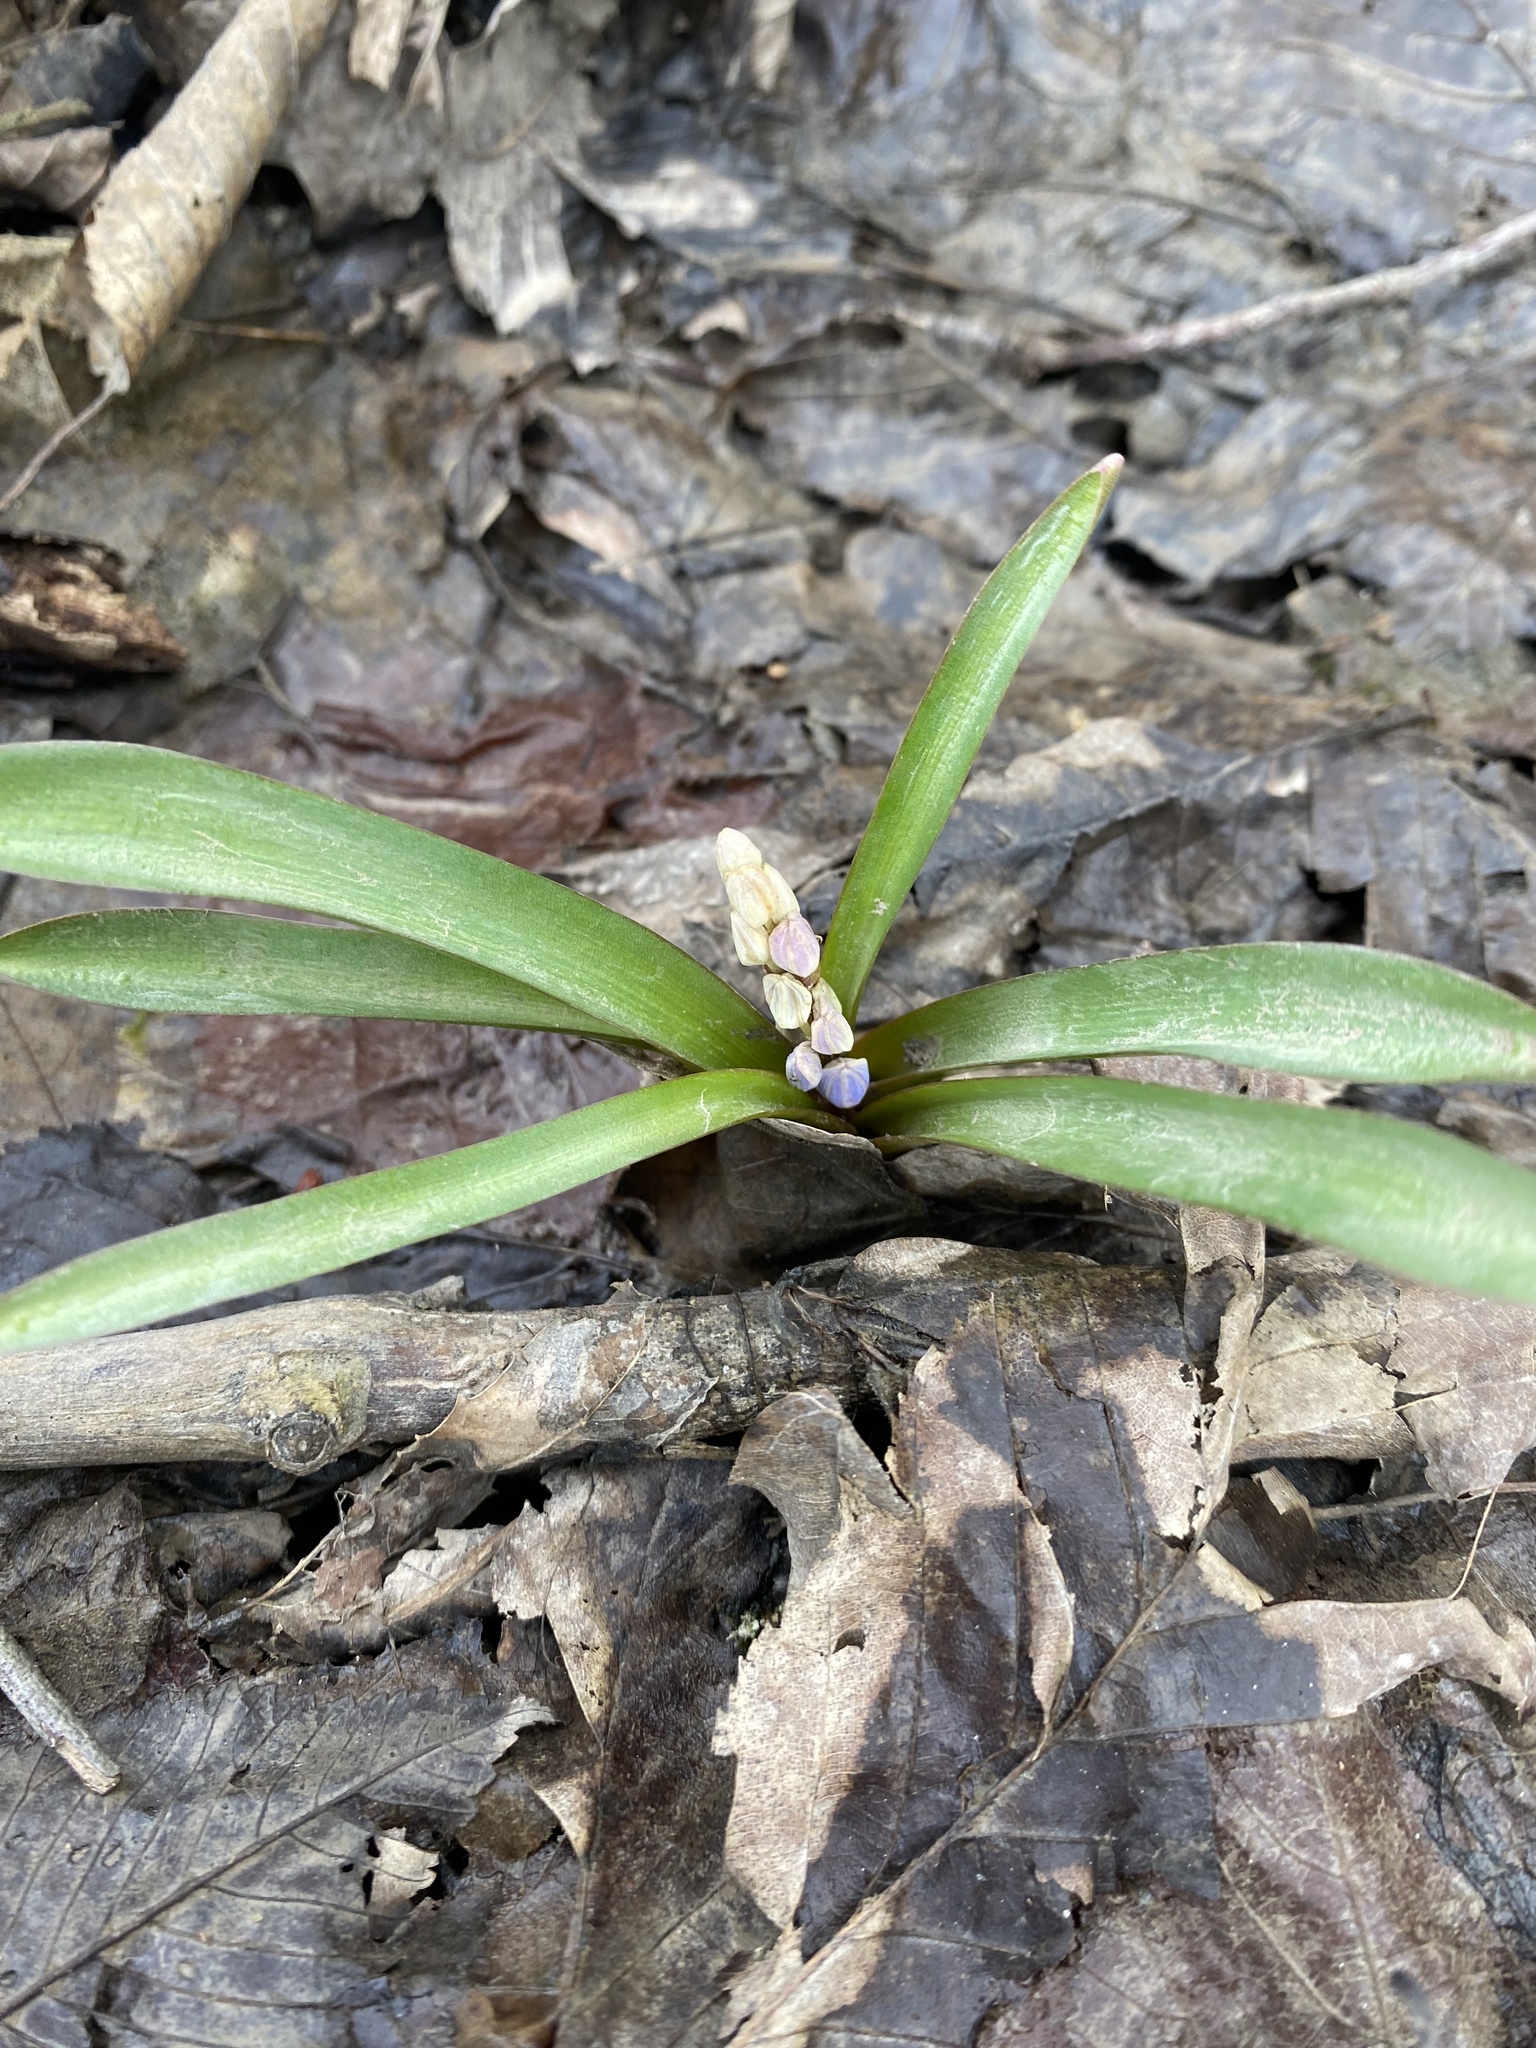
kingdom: Plantae
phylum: Tracheophyta
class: Liliopsida
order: Asparagales
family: Asparagaceae
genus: Scilla
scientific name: Scilla bifolia
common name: Alpine squill
